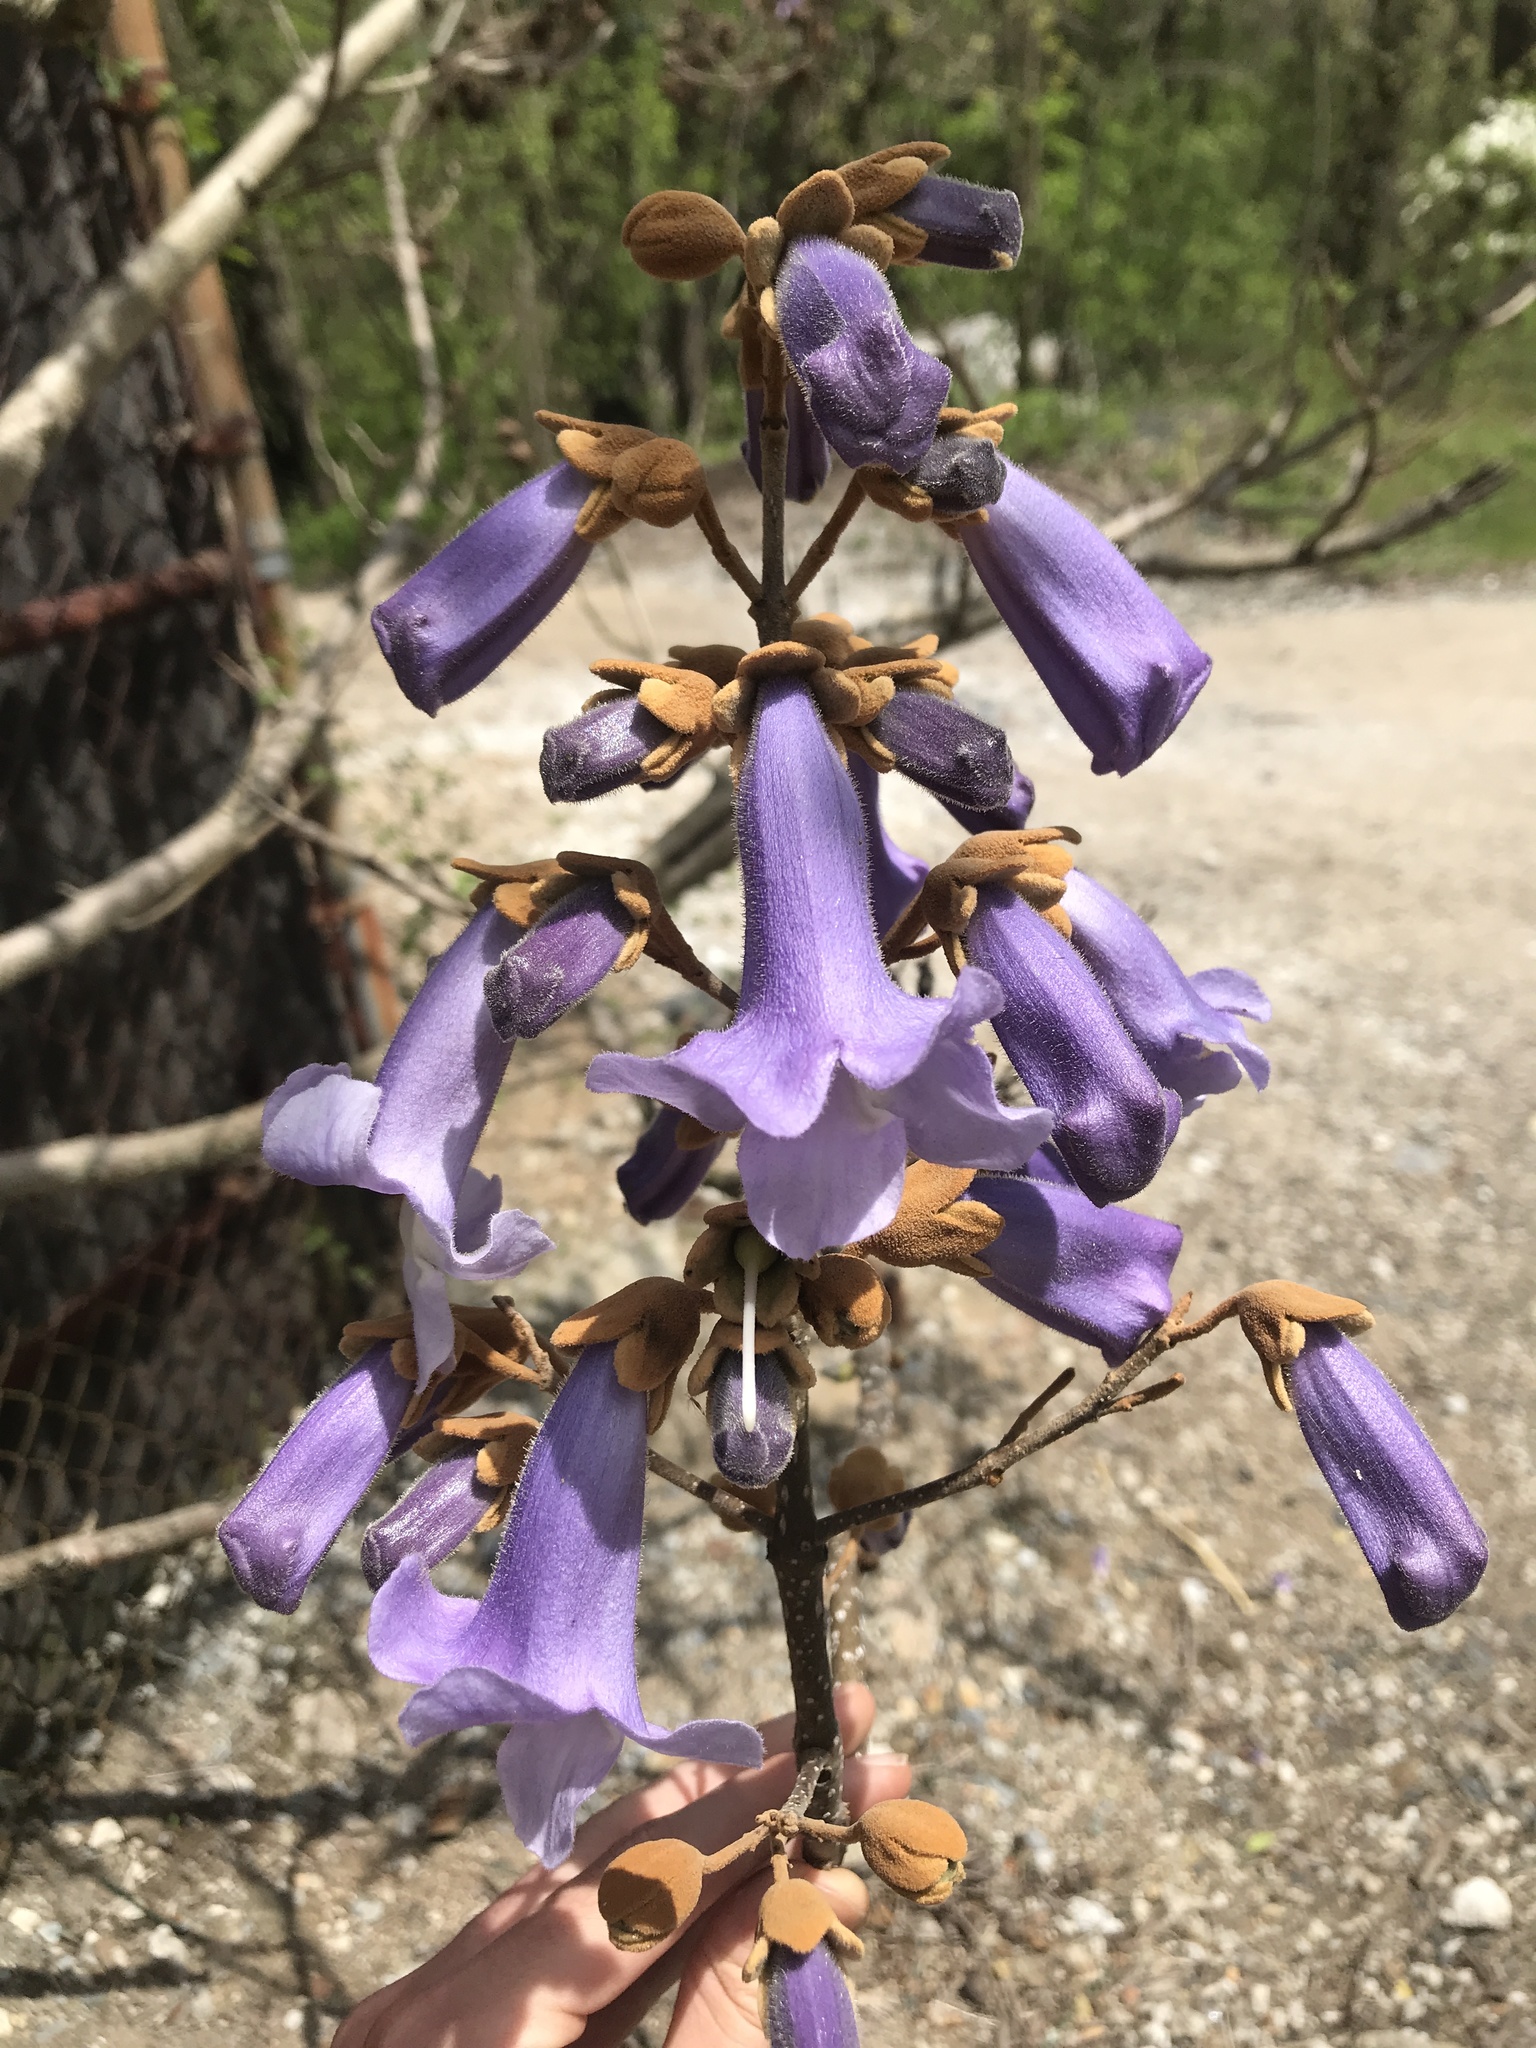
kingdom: Plantae
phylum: Tracheophyta
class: Magnoliopsida
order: Lamiales
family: Paulowniaceae
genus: Paulownia
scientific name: Paulownia tomentosa
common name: Foxglove-tree
